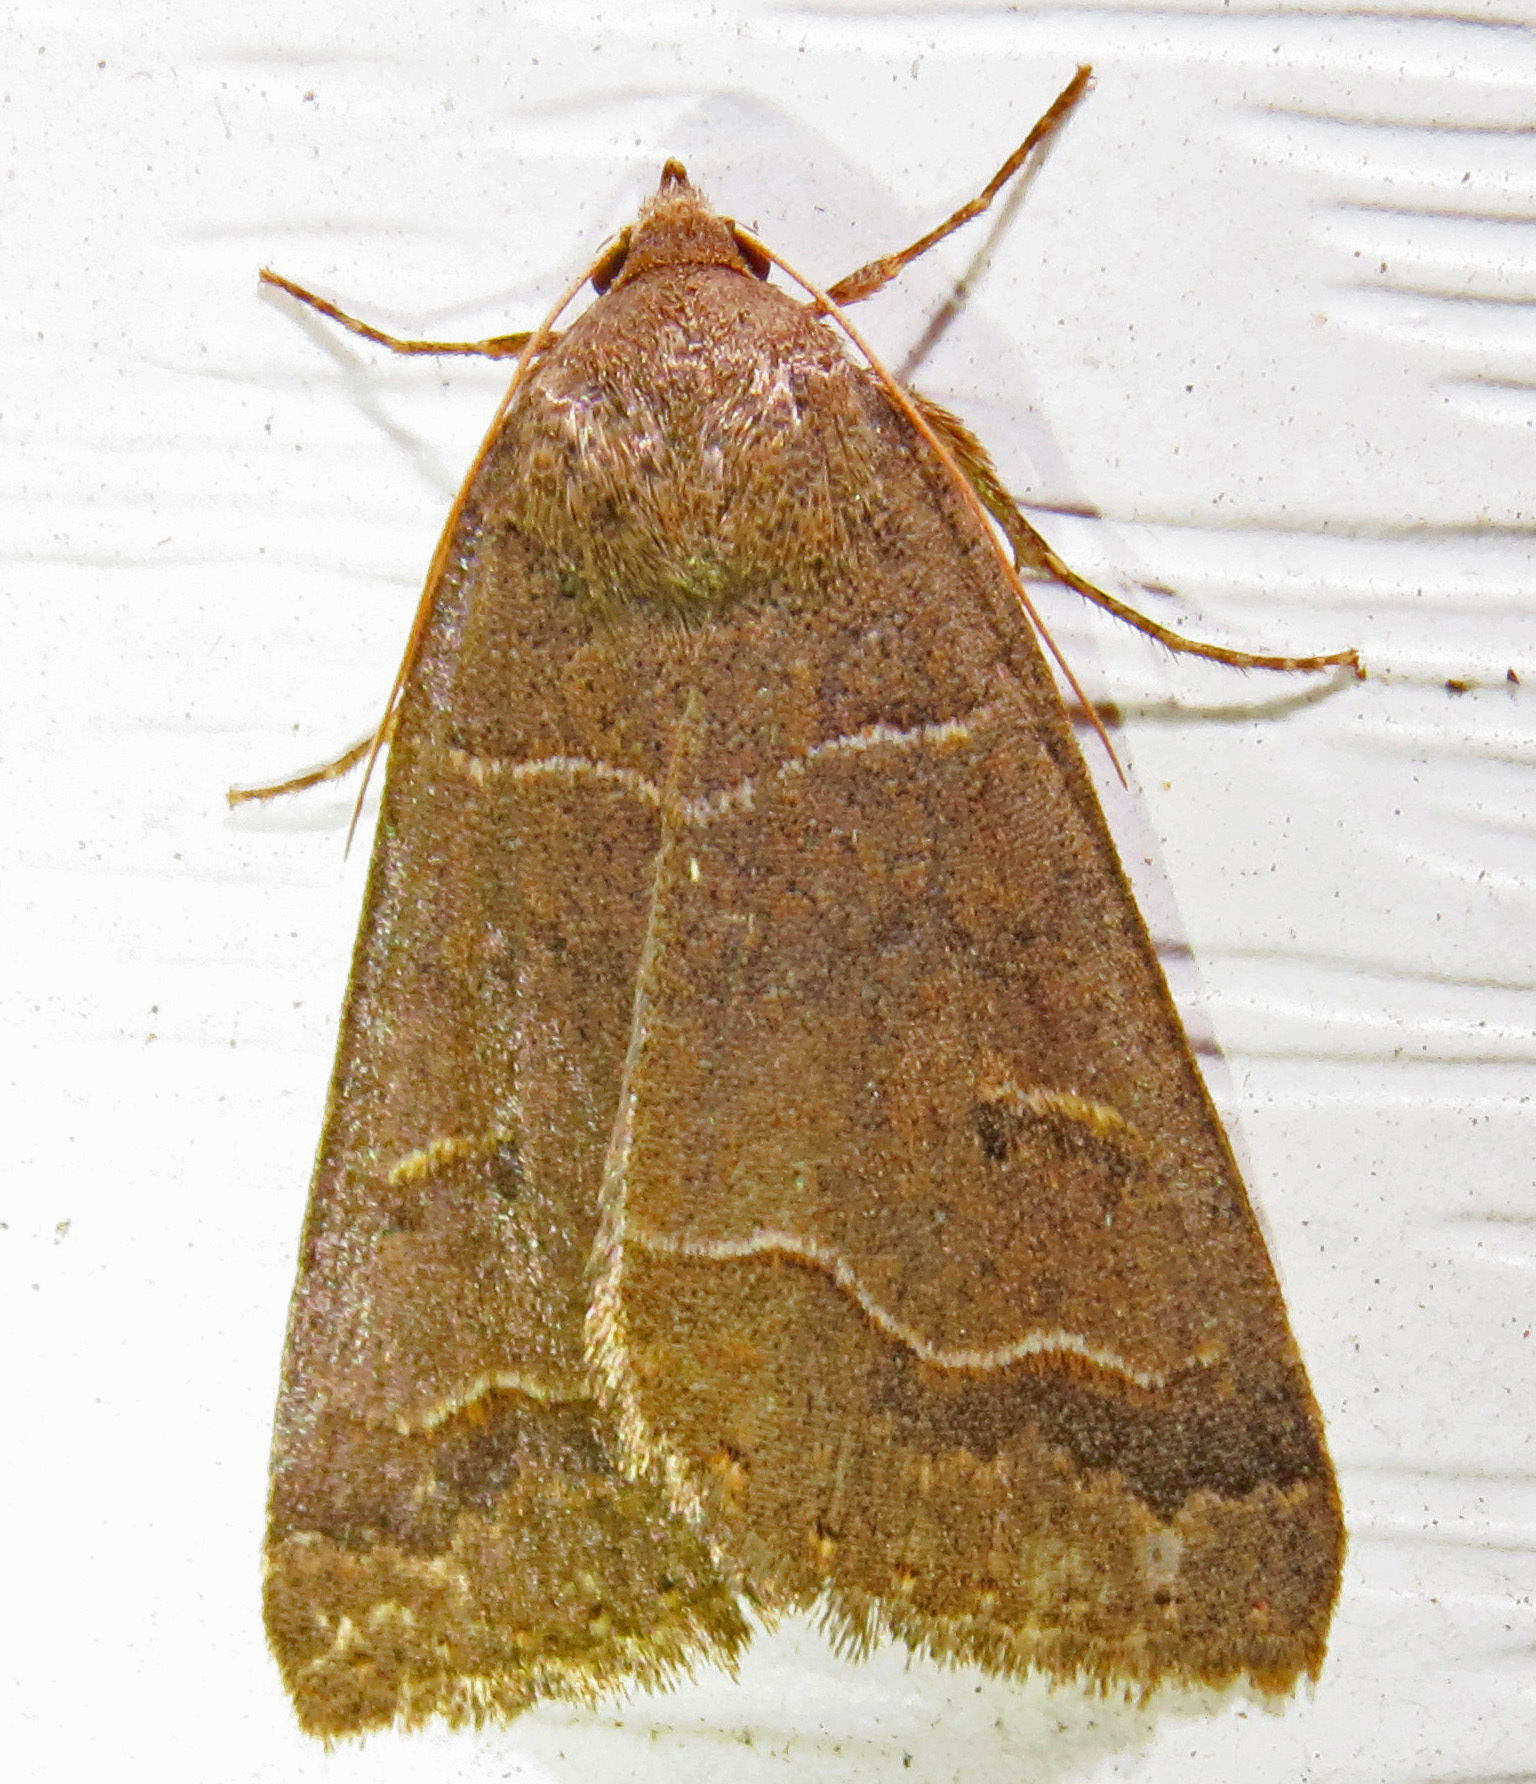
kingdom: Animalia
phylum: Arthropoda
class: Insecta
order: Lepidoptera
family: Erebidae
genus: Phoberia
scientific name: Phoberia atomaris
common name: Common oak moth
